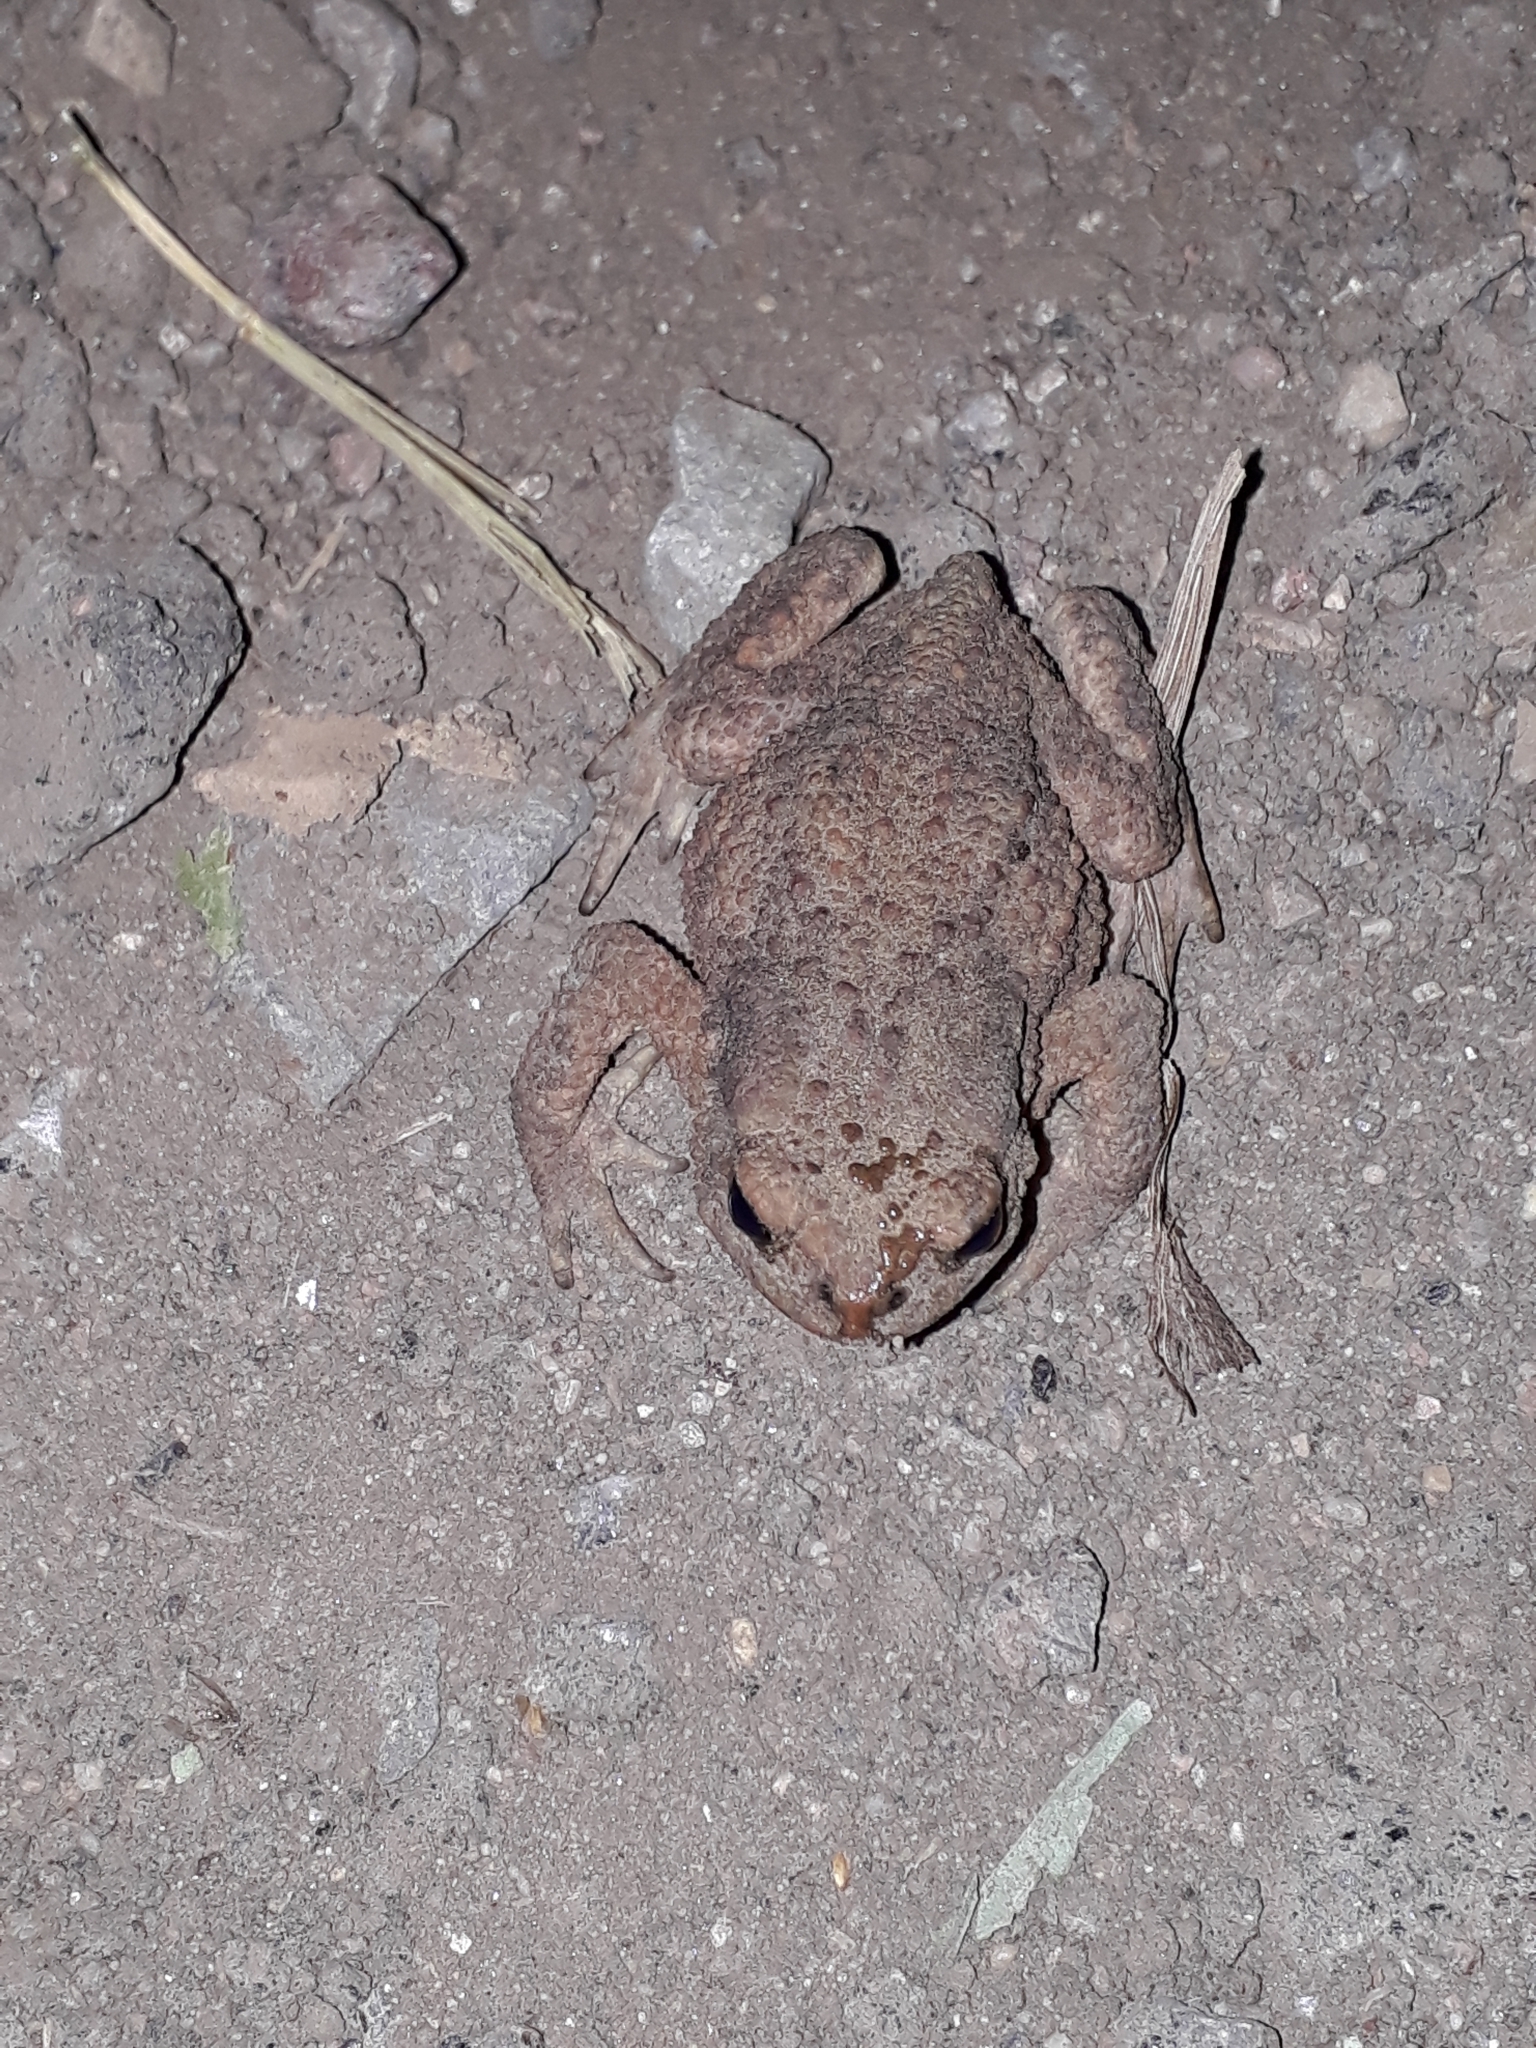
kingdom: Animalia
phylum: Chordata
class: Amphibia
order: Anura
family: Bufonidae
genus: Bufo
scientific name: Bufo bufo
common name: Common toad
